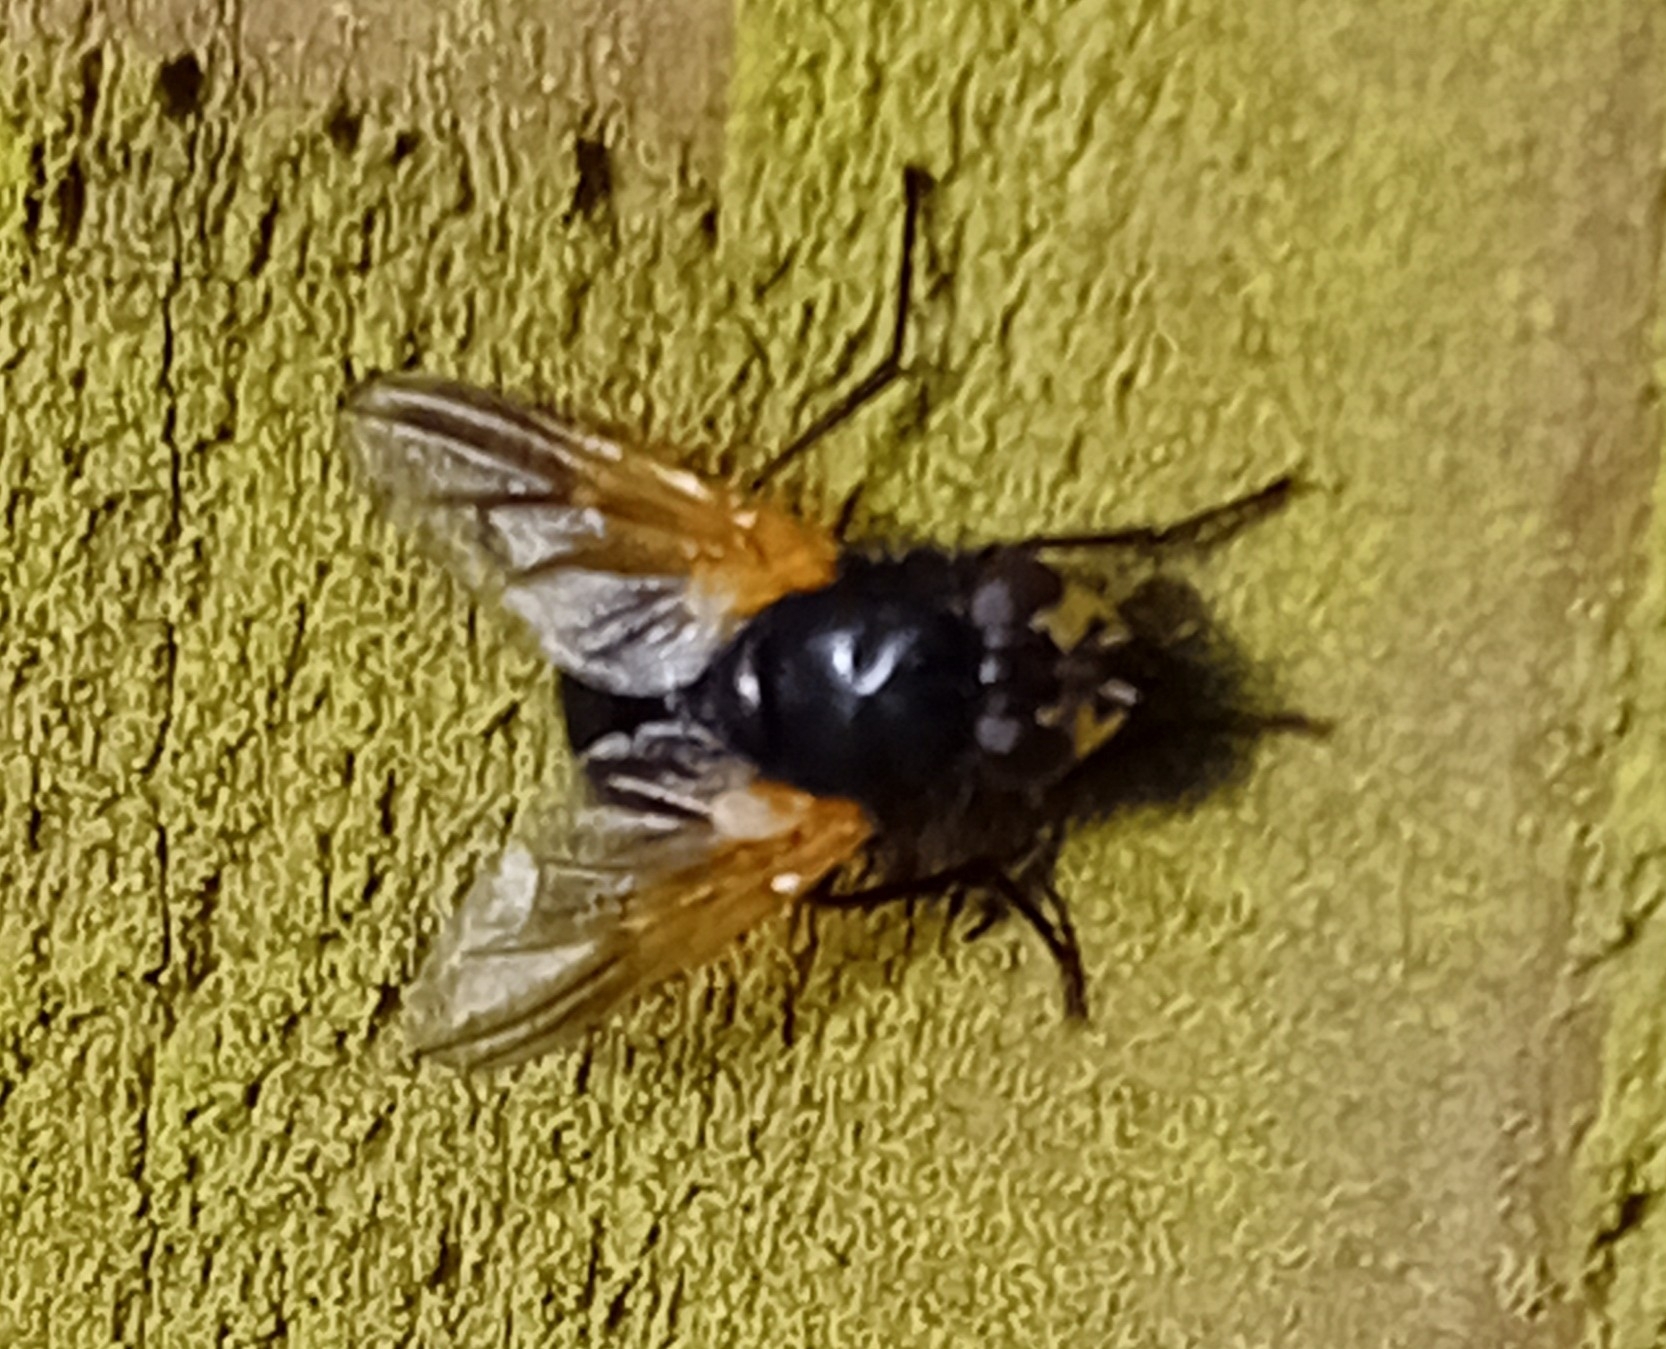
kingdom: Animalia
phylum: Arthropoda
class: Insecta
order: Diptera
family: Muscidae
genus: Mesembrina
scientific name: Mesembrina meridiana
